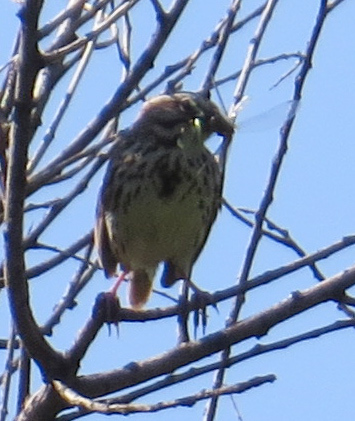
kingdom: Animalia
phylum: Chordata
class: Aves
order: Passeriformes
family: Passerellidae
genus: Melospiza
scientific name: Melospiza melodia
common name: Song sparrow
